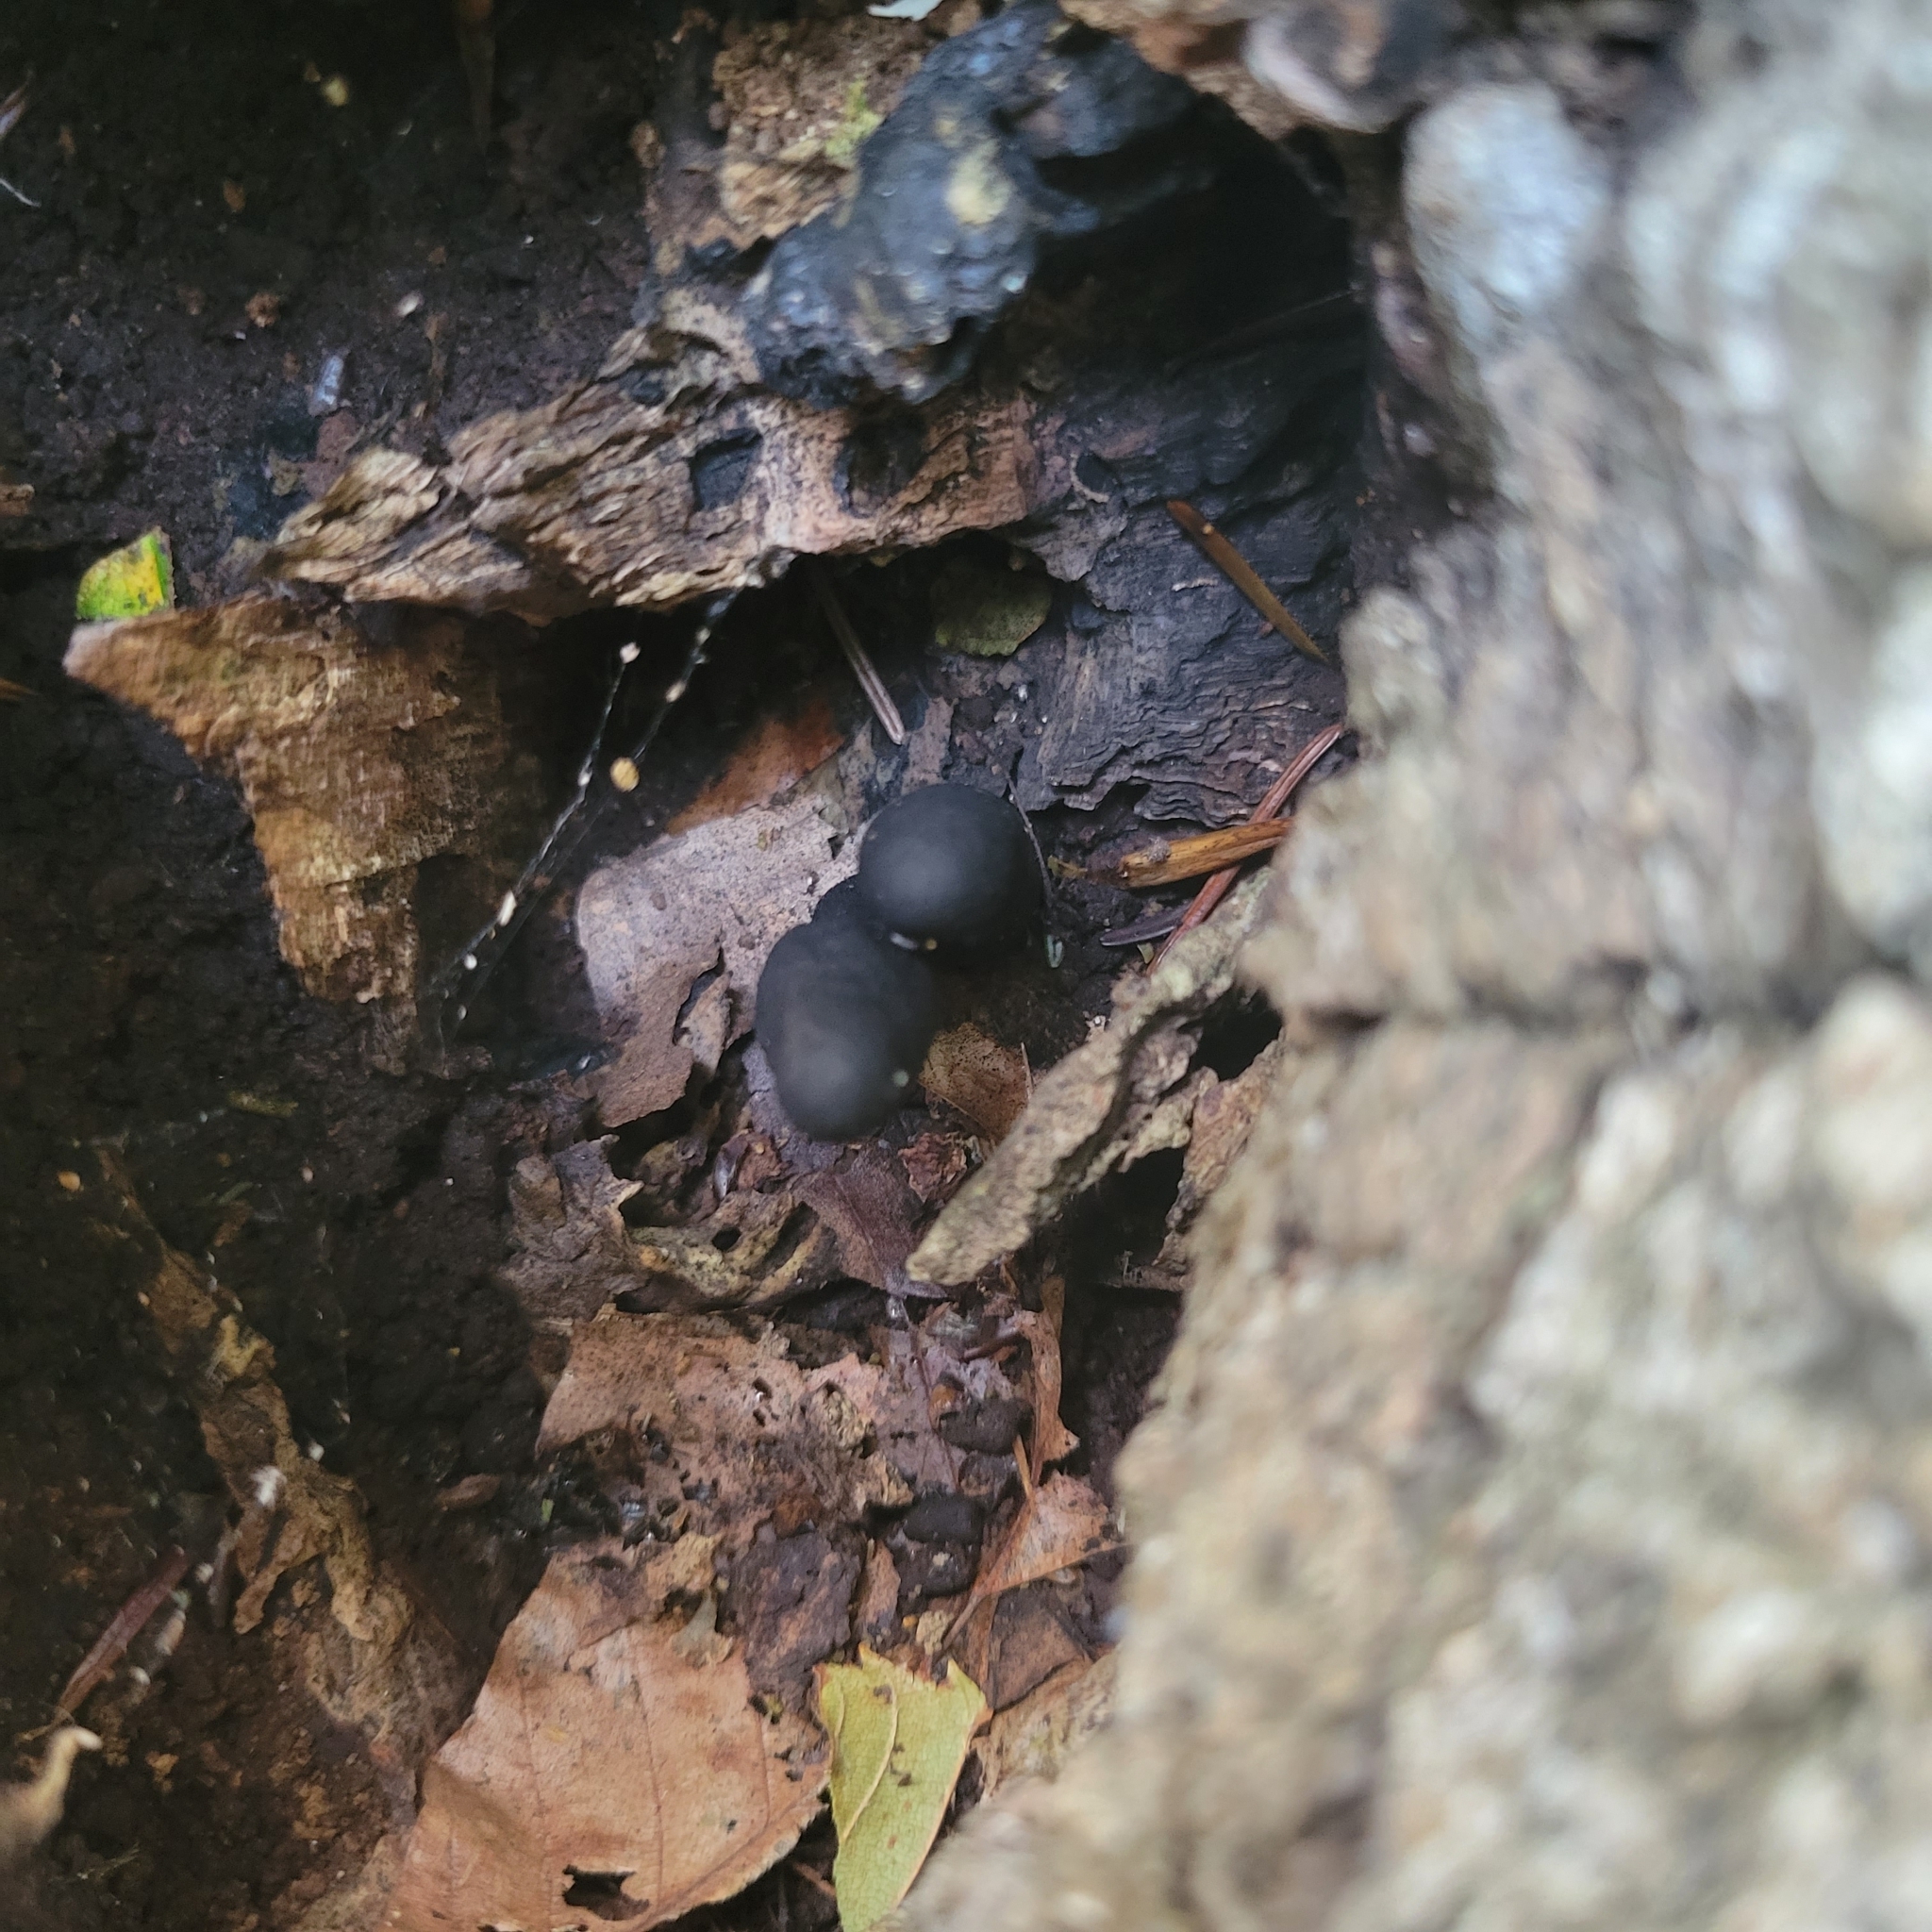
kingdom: Fungi
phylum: Ascomycota
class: Sordariomycetes
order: Xylariales
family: Xylariaceae
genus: Xylaria
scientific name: Xylaria polymorpha
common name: Dead man's fingers
